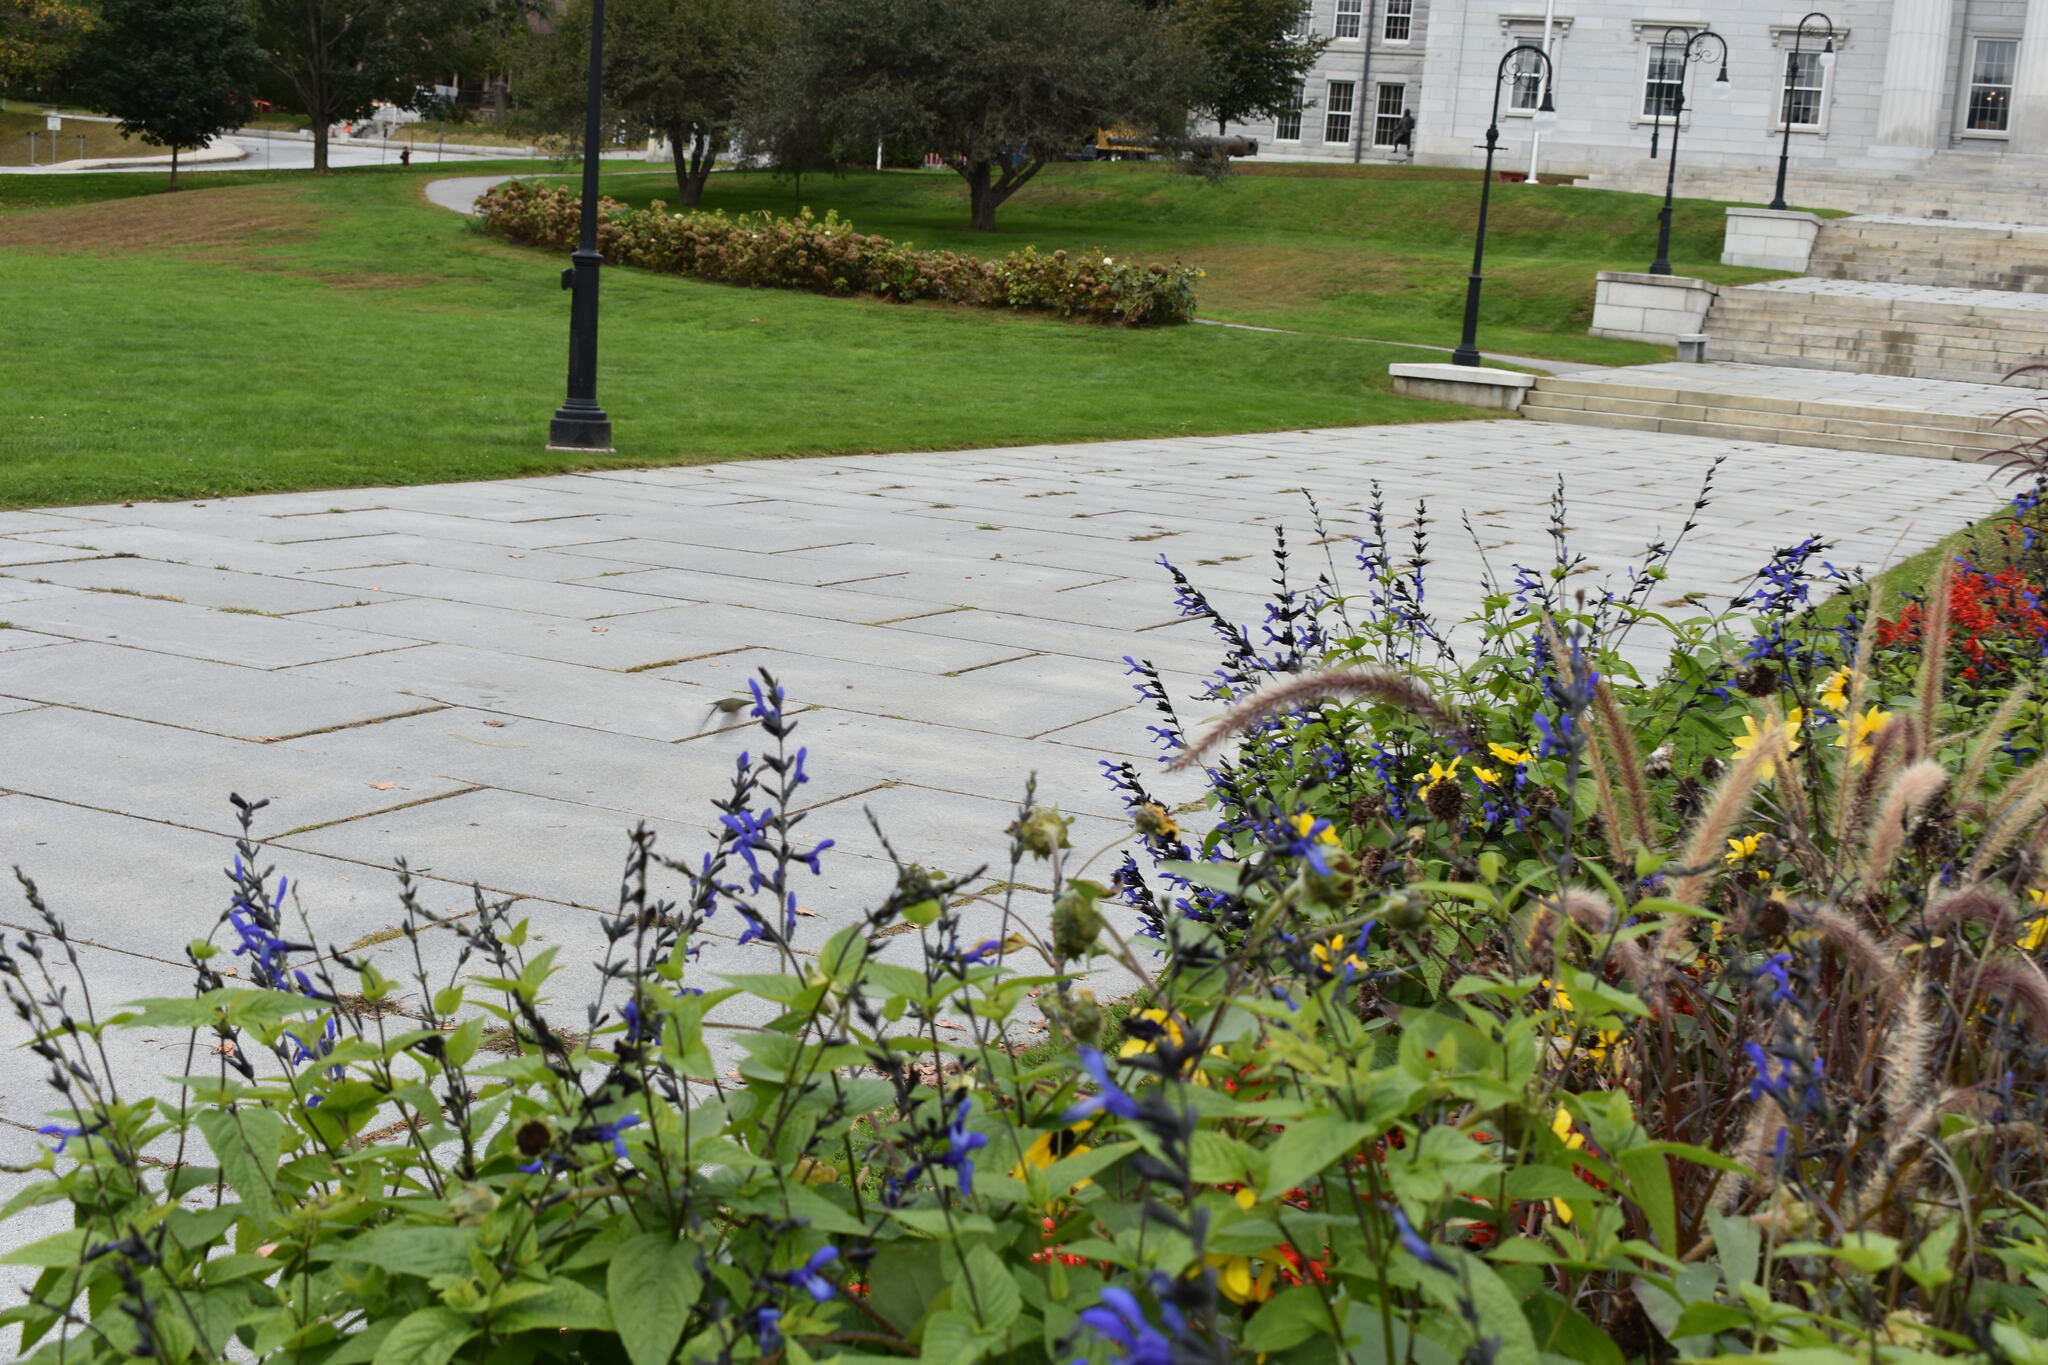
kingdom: Animalia
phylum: Chordata
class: Aves
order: Apodiformes
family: Trochilidae
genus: Archilochus
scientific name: Archilochus colubris
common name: Ruby-throated hummingbird
